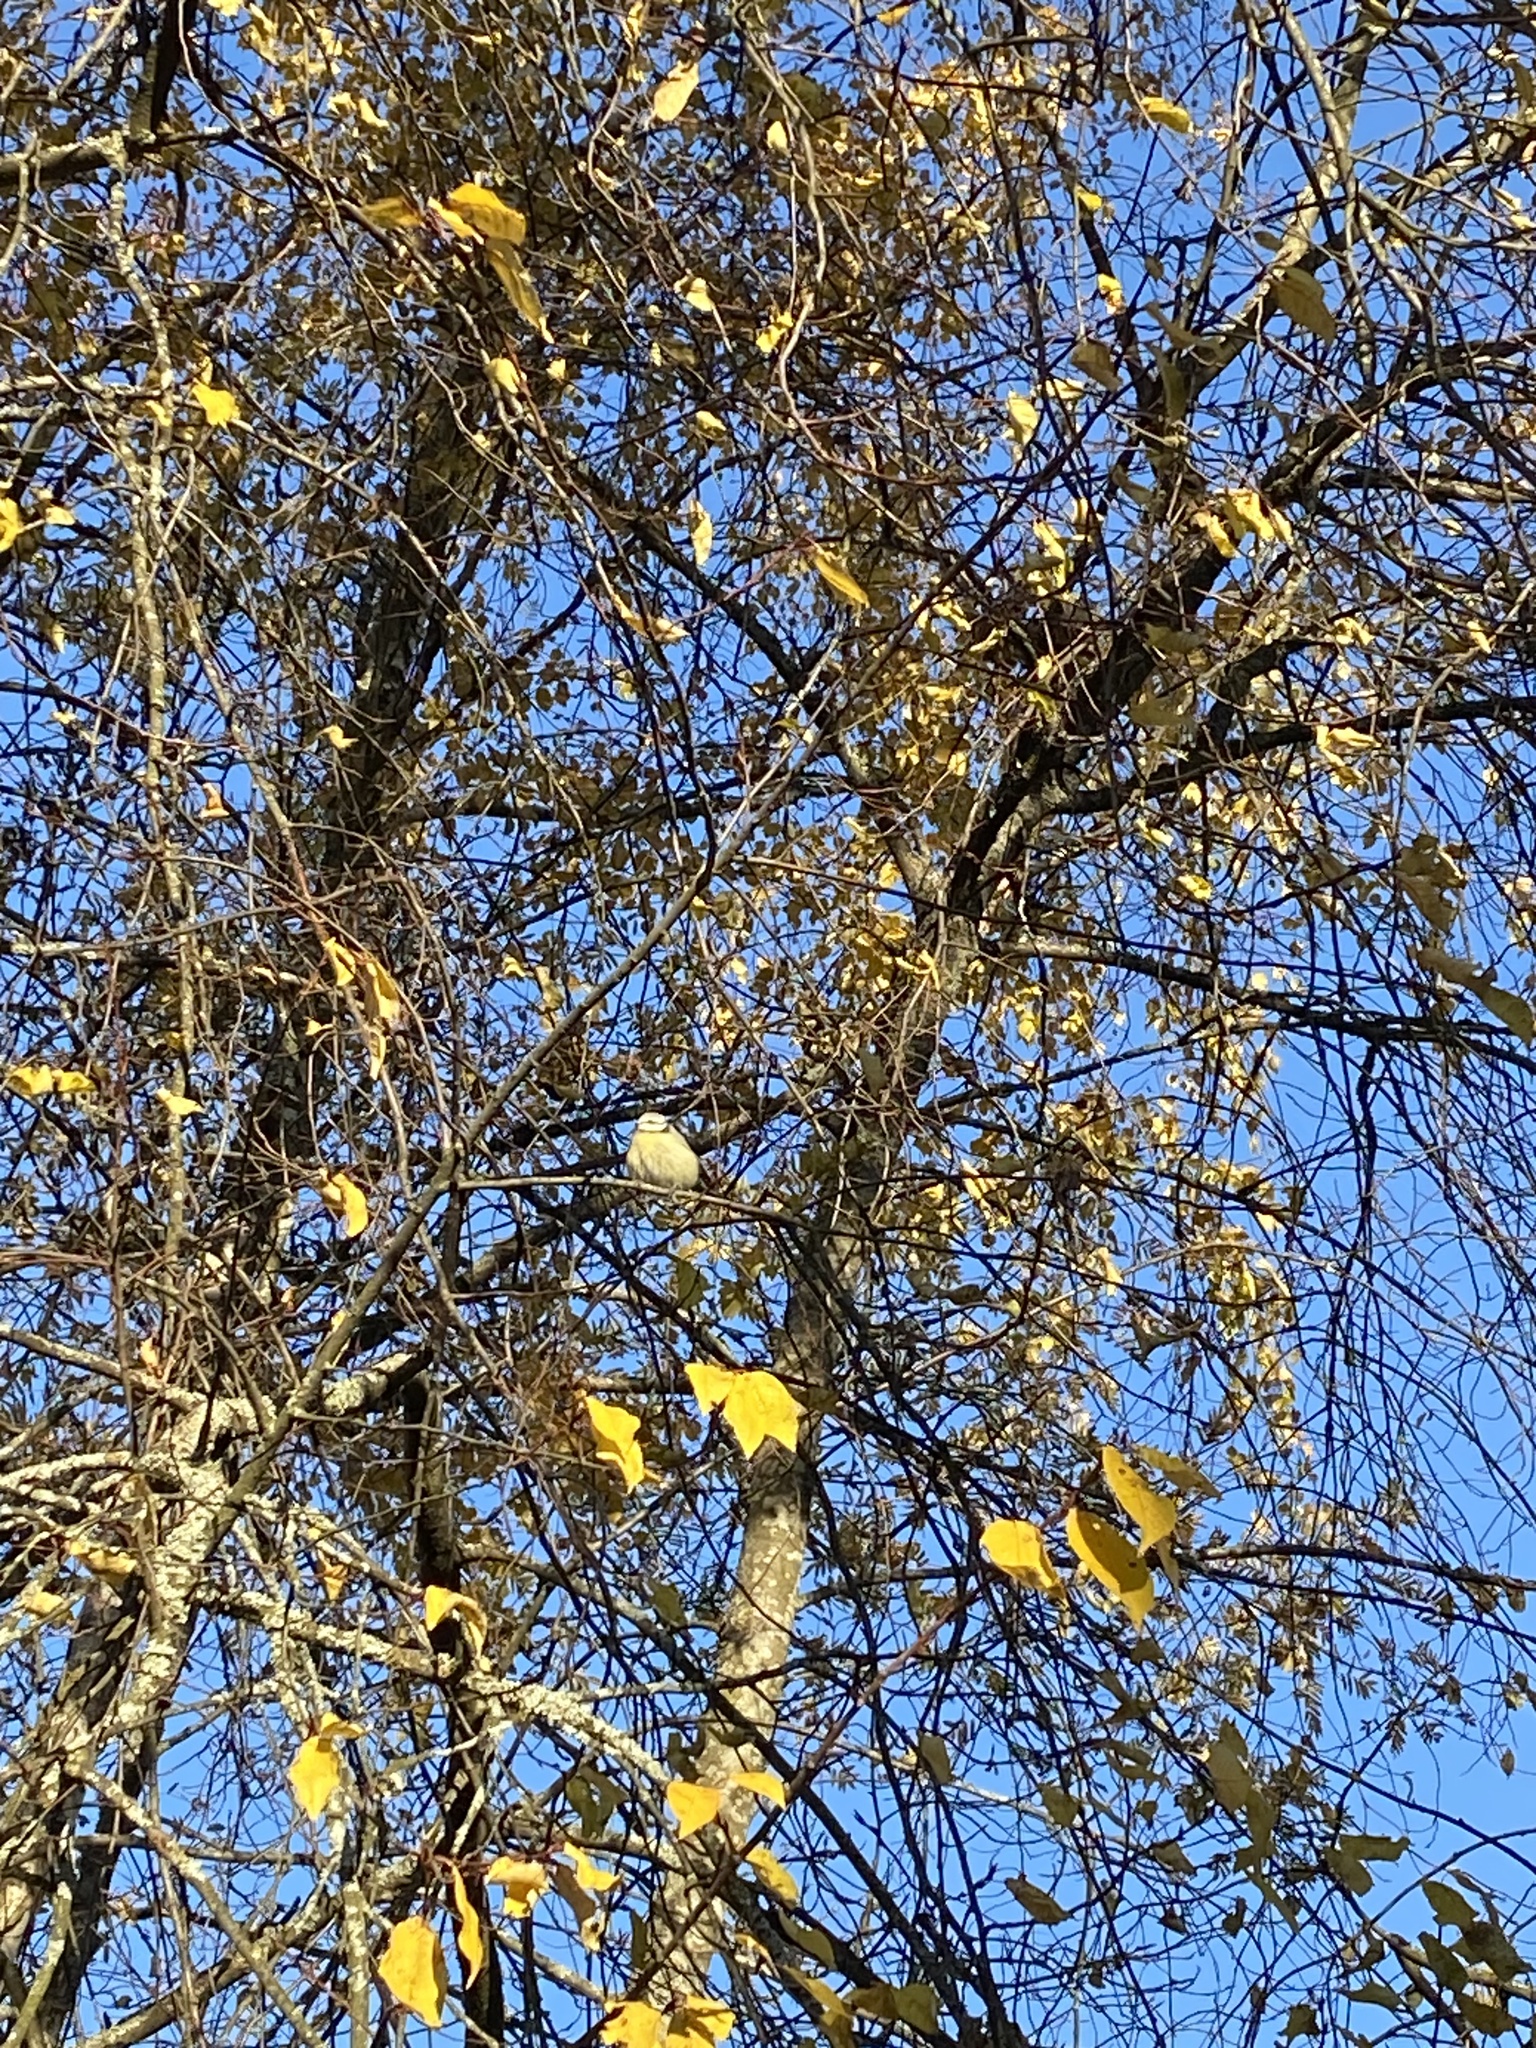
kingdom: Animalia
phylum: Chordata
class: Aves
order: Passeriformes
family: Paridae
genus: Cyanistes
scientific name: Cyanistes caeruleus
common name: Eurasian blue tit
